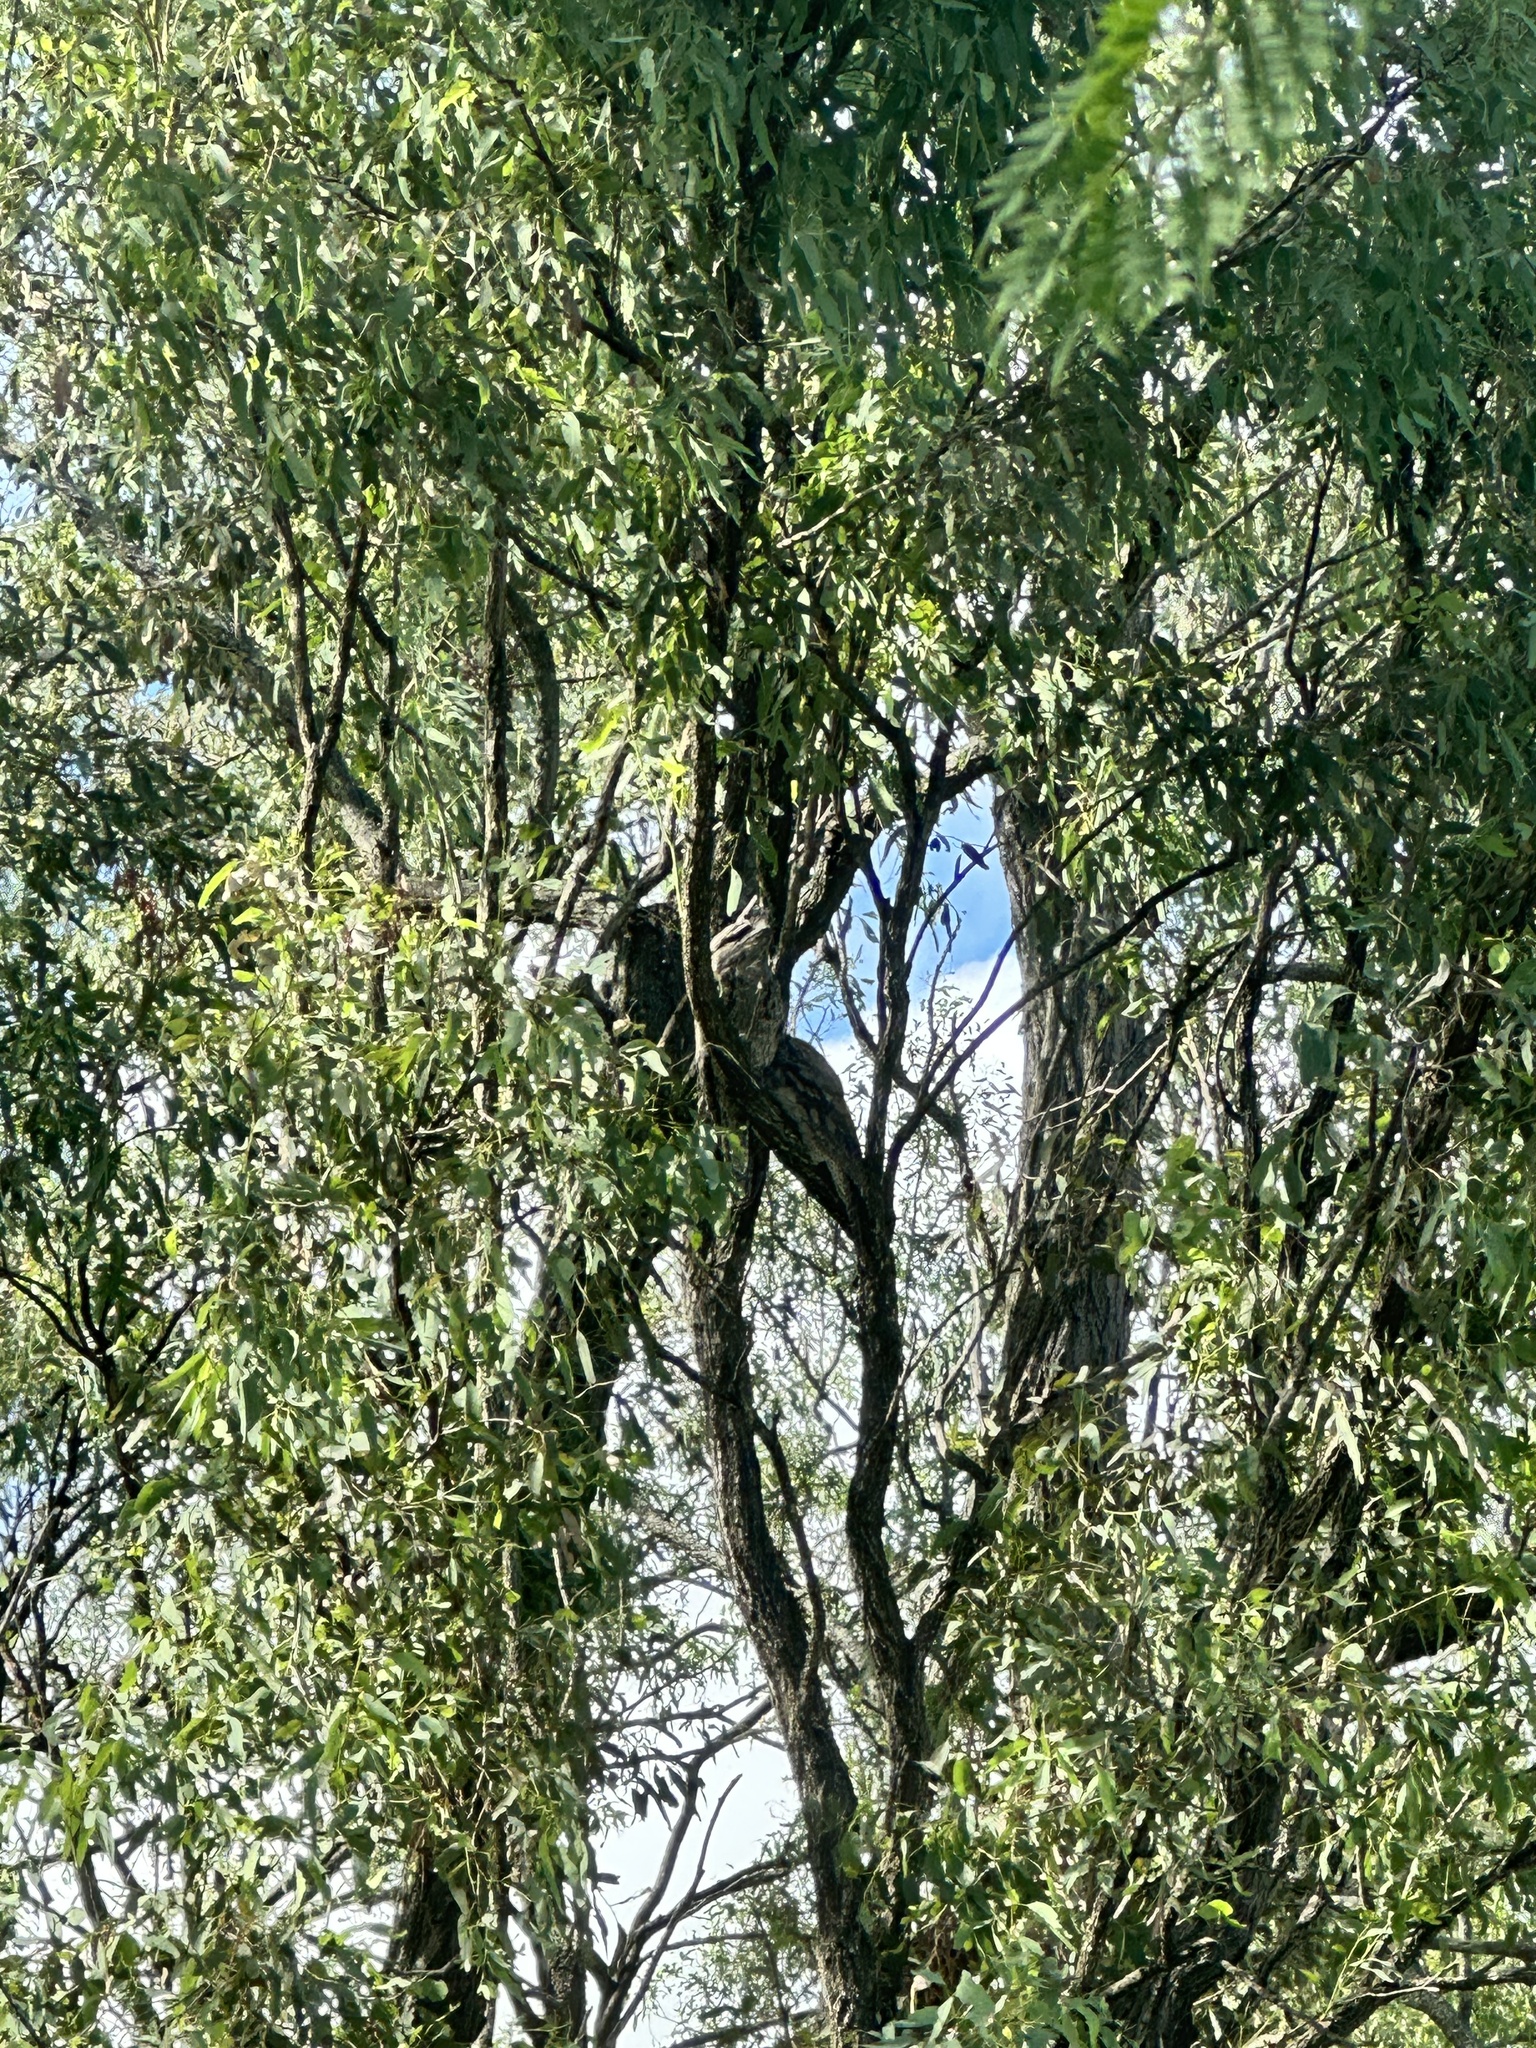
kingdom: Animalia
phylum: Chordata
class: Aves
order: Caprimulgiformes
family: Podargidae
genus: Podargus
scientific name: Podargus strigoides
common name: Tawny frogmouth
